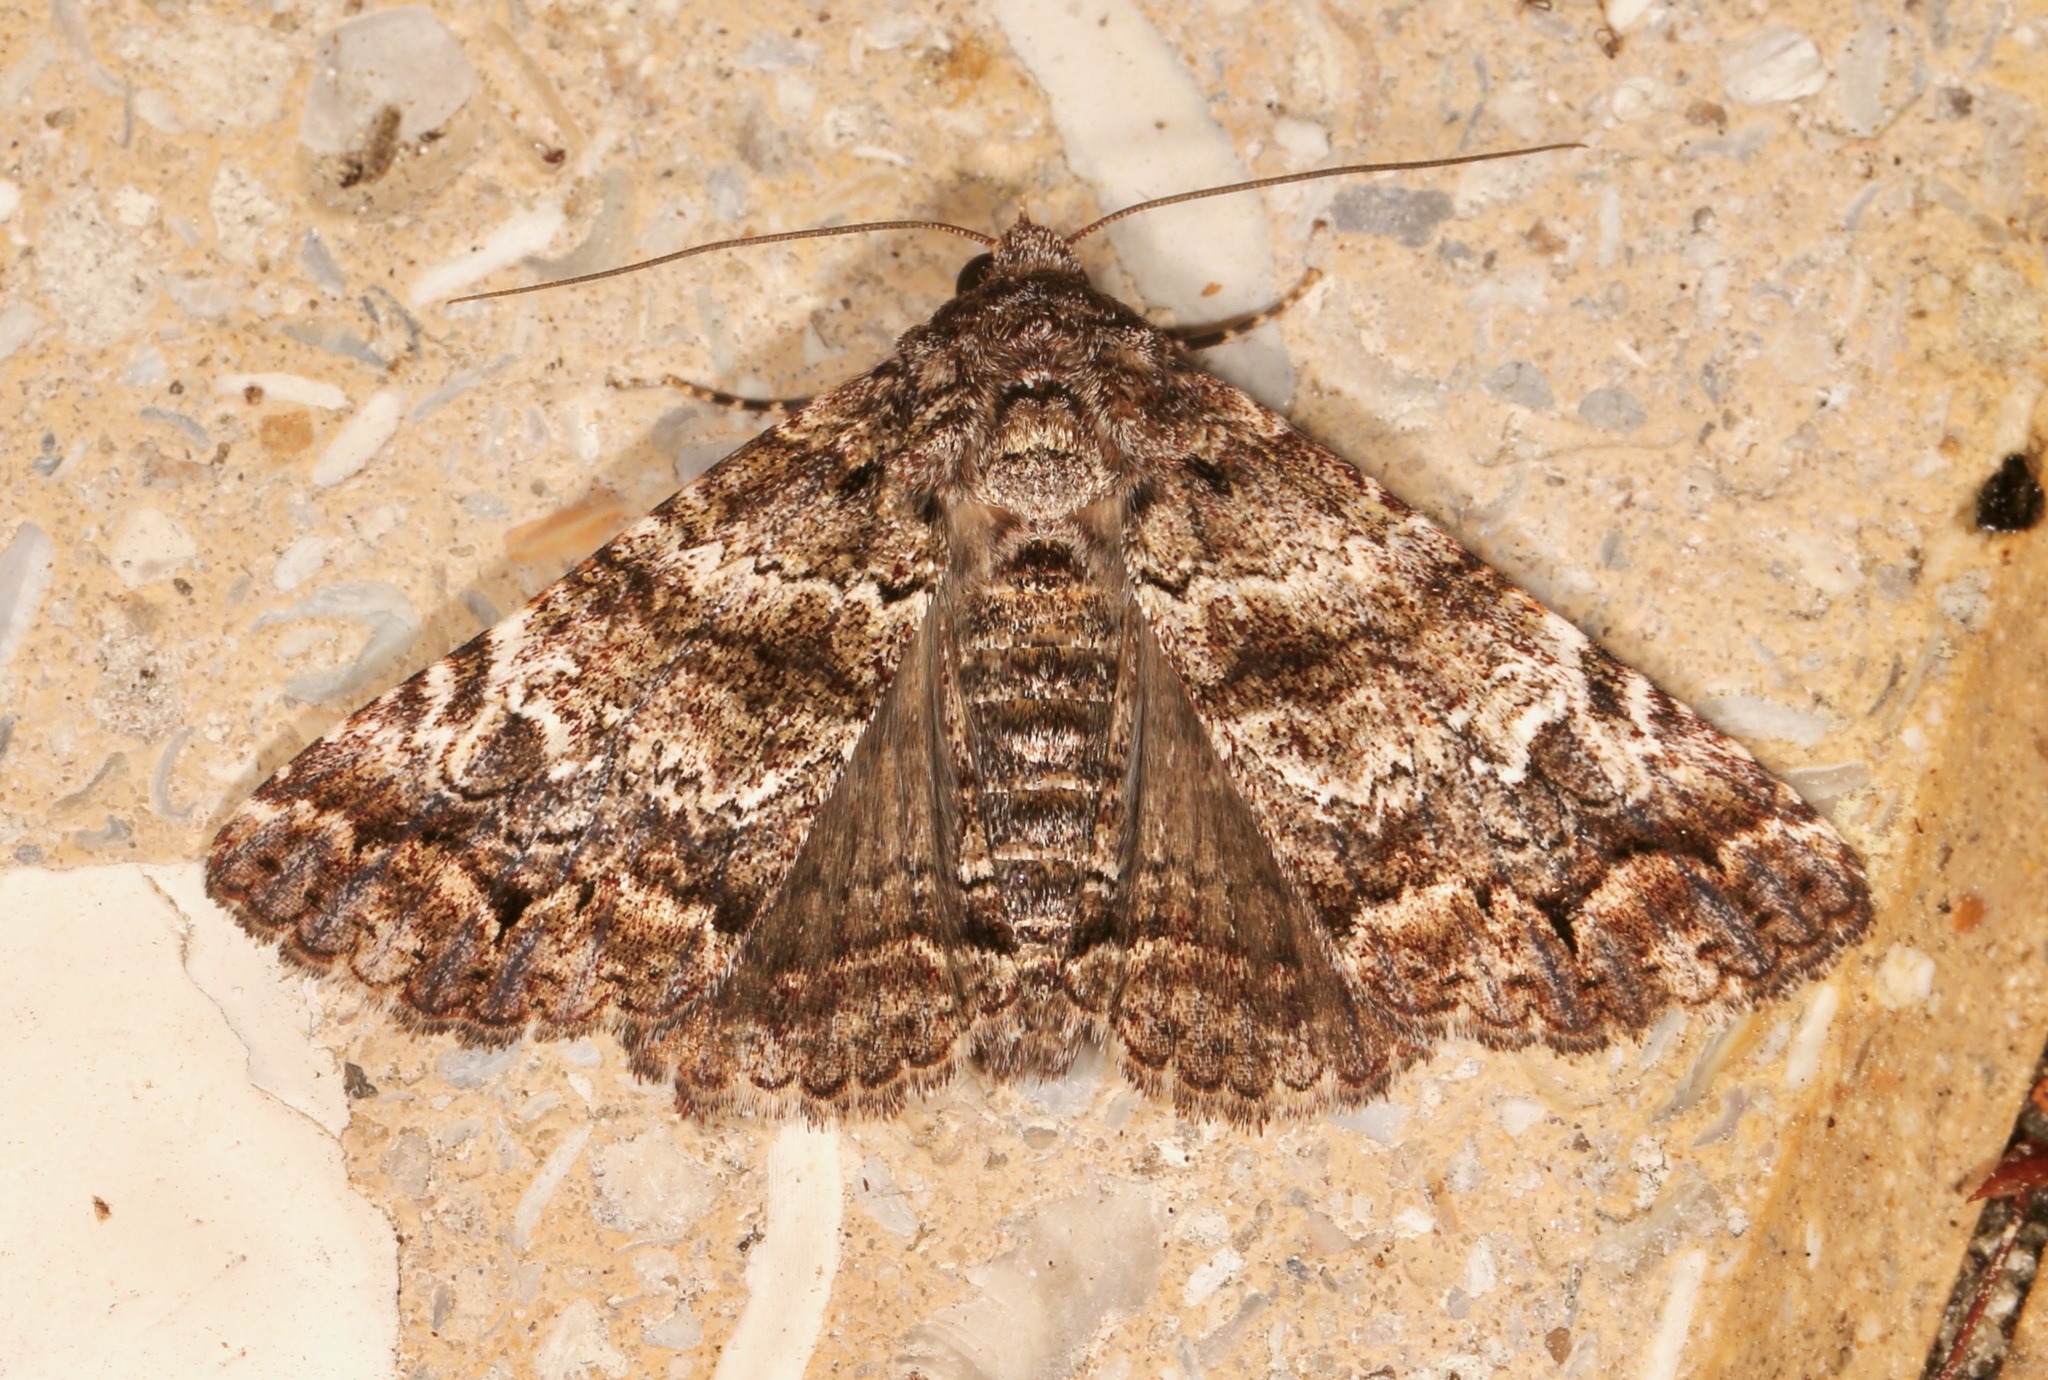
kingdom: Animalia
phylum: Arthropoda
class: Insecta
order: Lepidoptera
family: Erebidae
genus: Metria
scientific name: Metria amella
